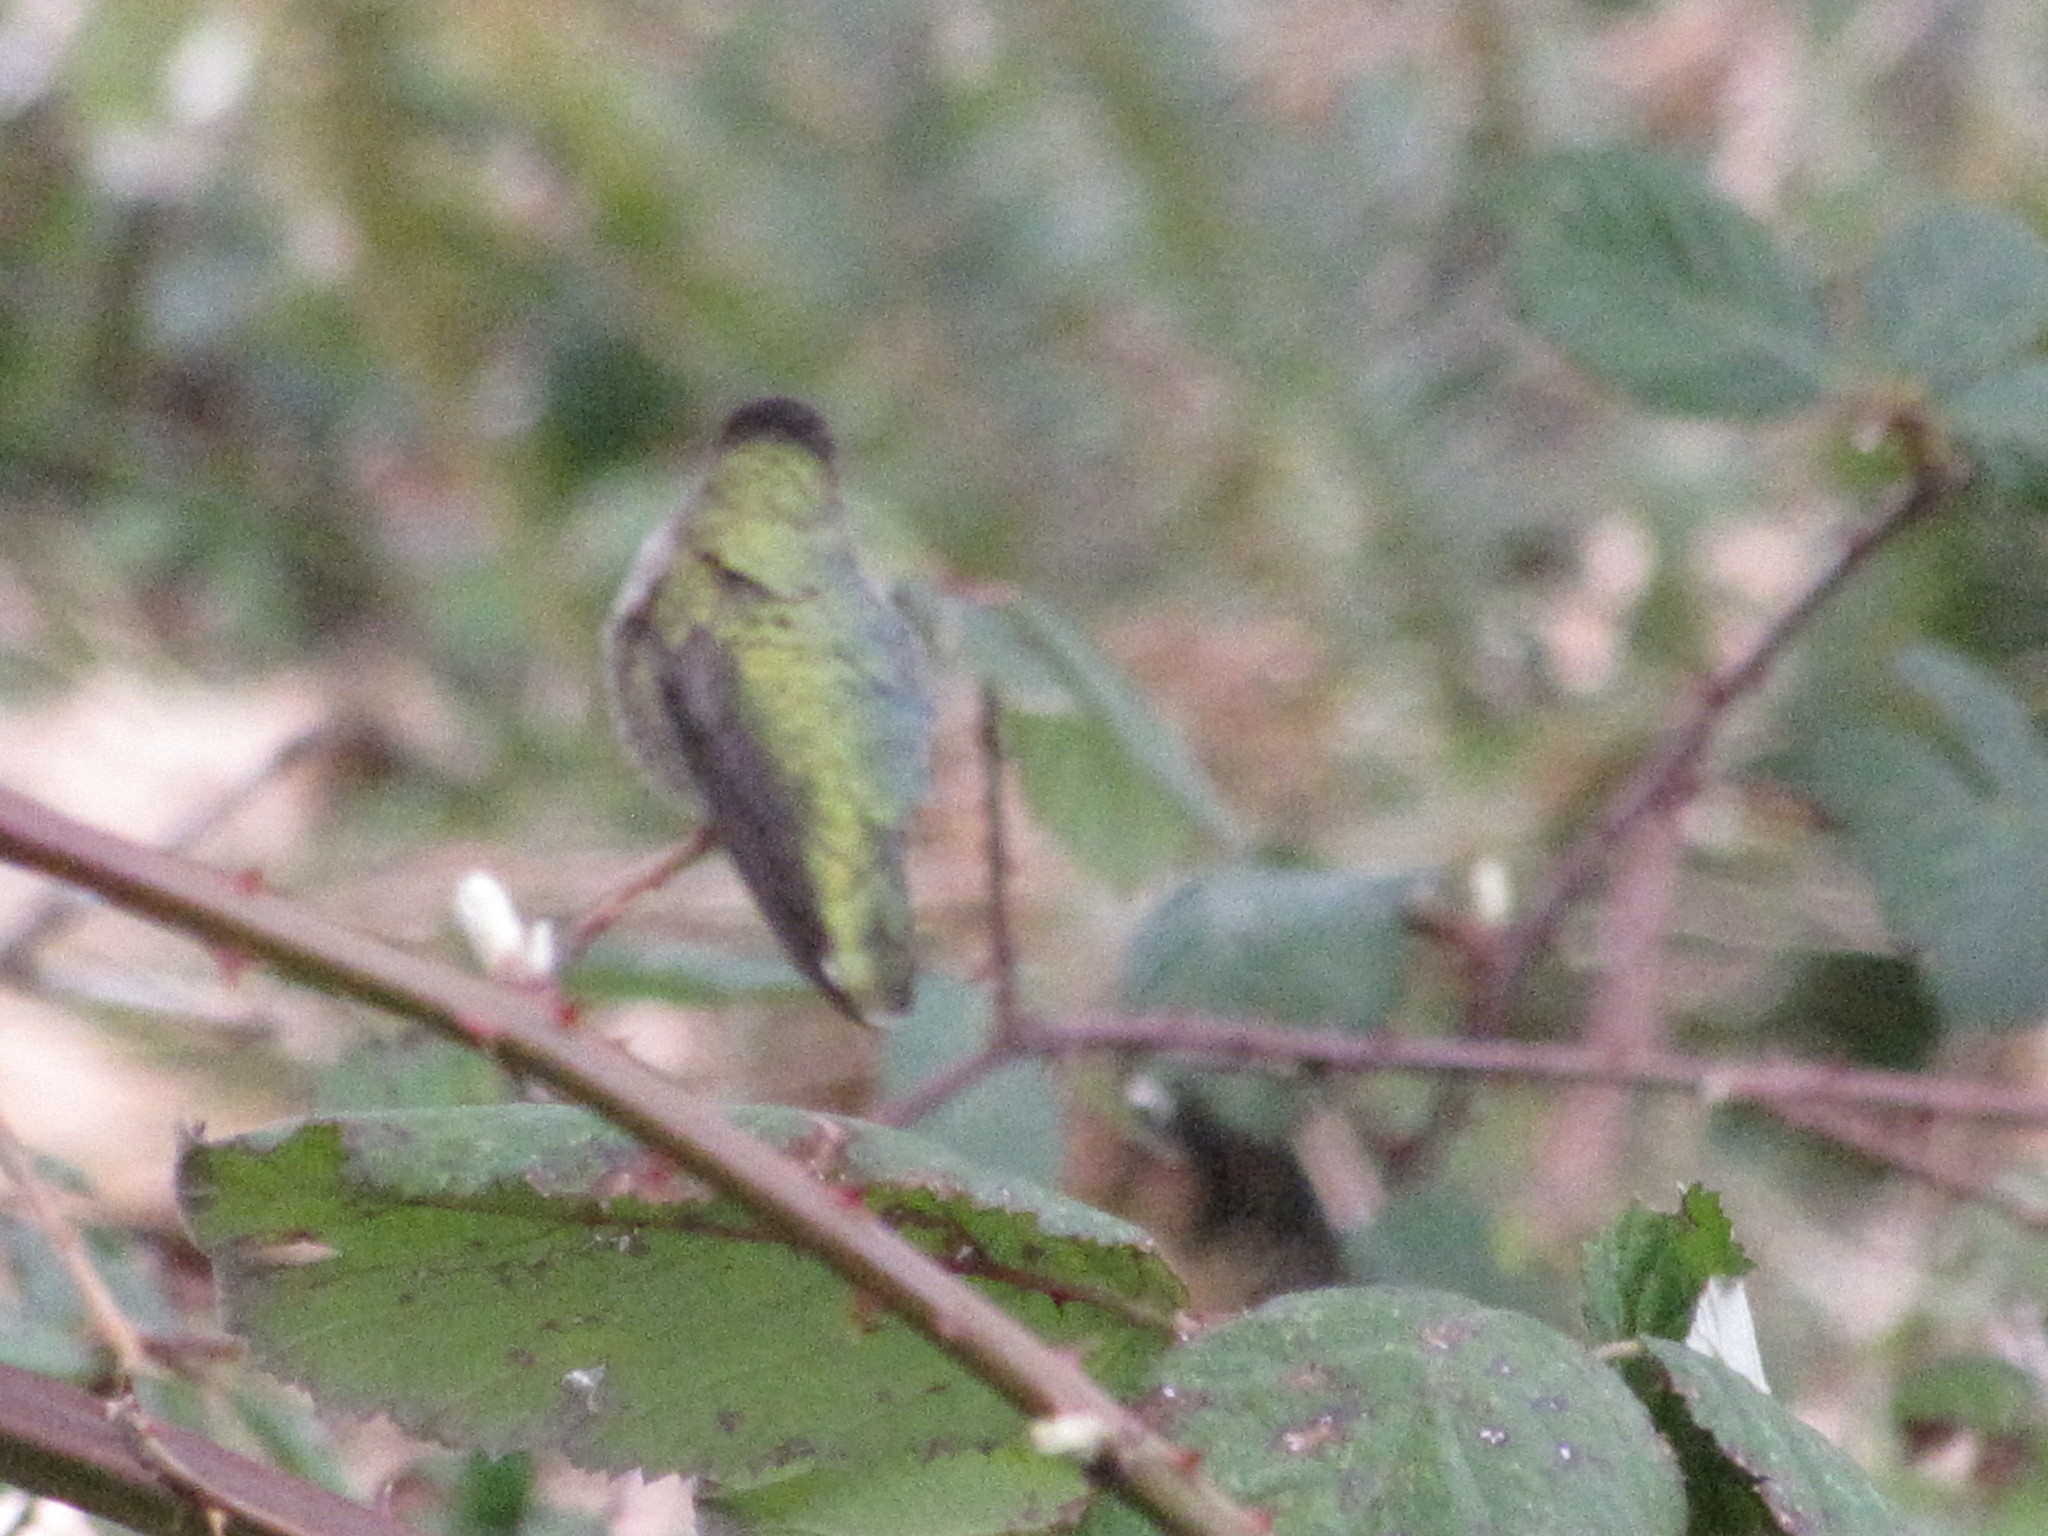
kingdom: Animalia
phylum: Chordata
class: Aves
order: Apodiformes
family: Trochilidae
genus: Calypte
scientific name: Calypte anna
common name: Anna's hummingbird
